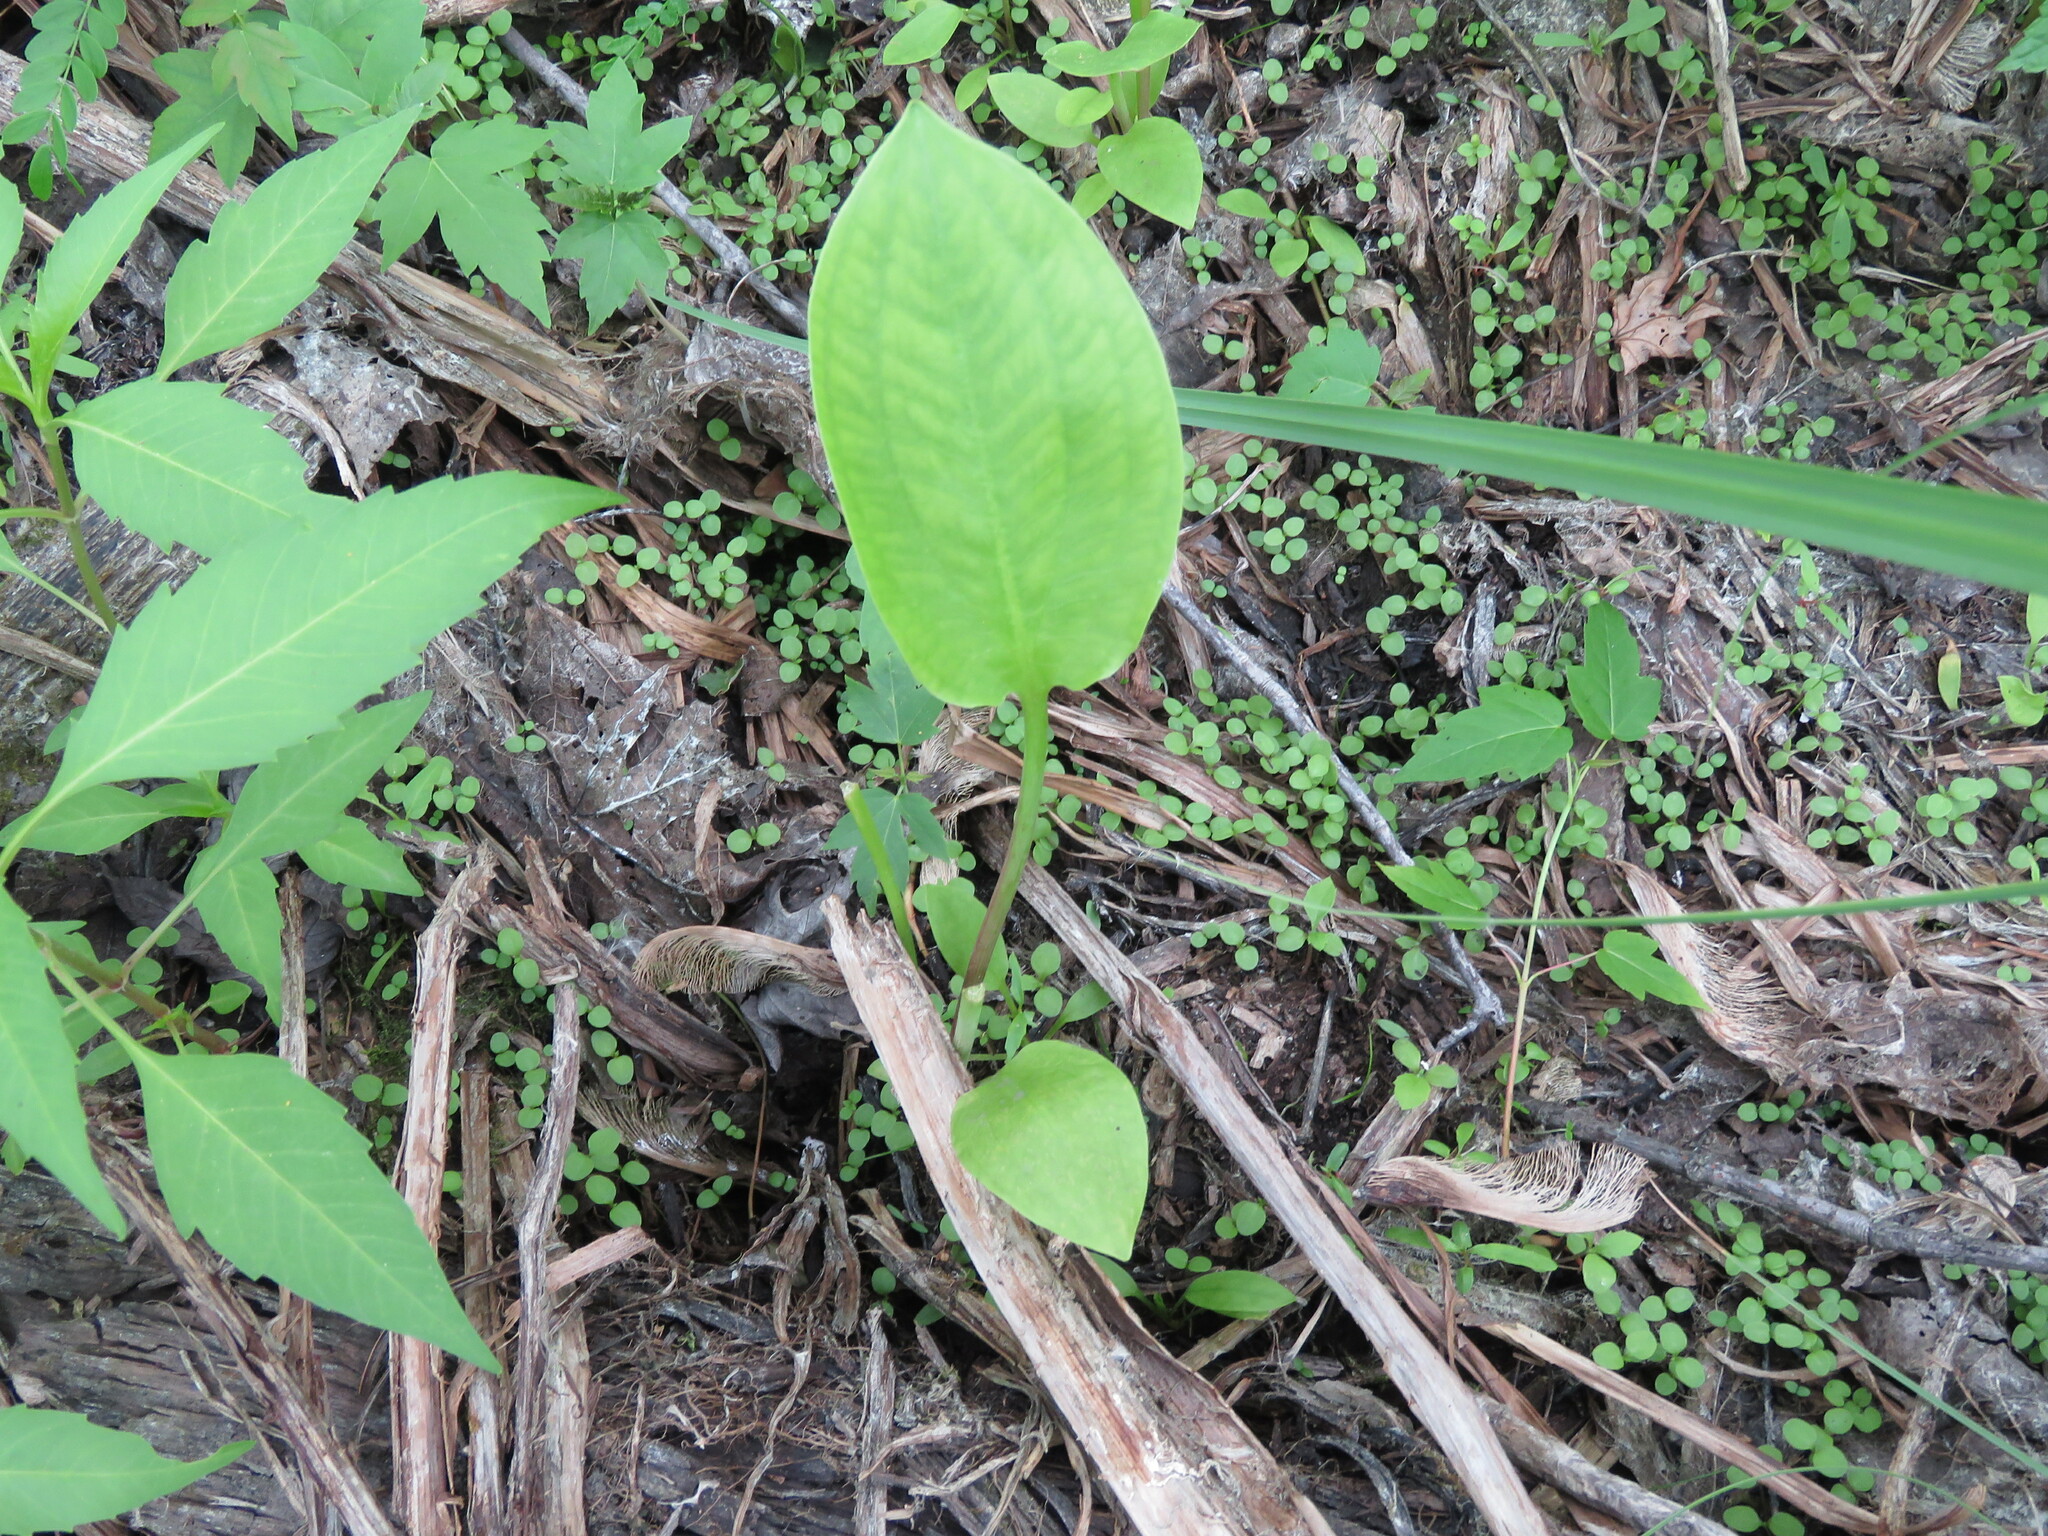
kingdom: Plantae
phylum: Tracheophyta
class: Liliopsida
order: Alismatales
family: Alismataceae
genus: Alisma
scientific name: Alisma
